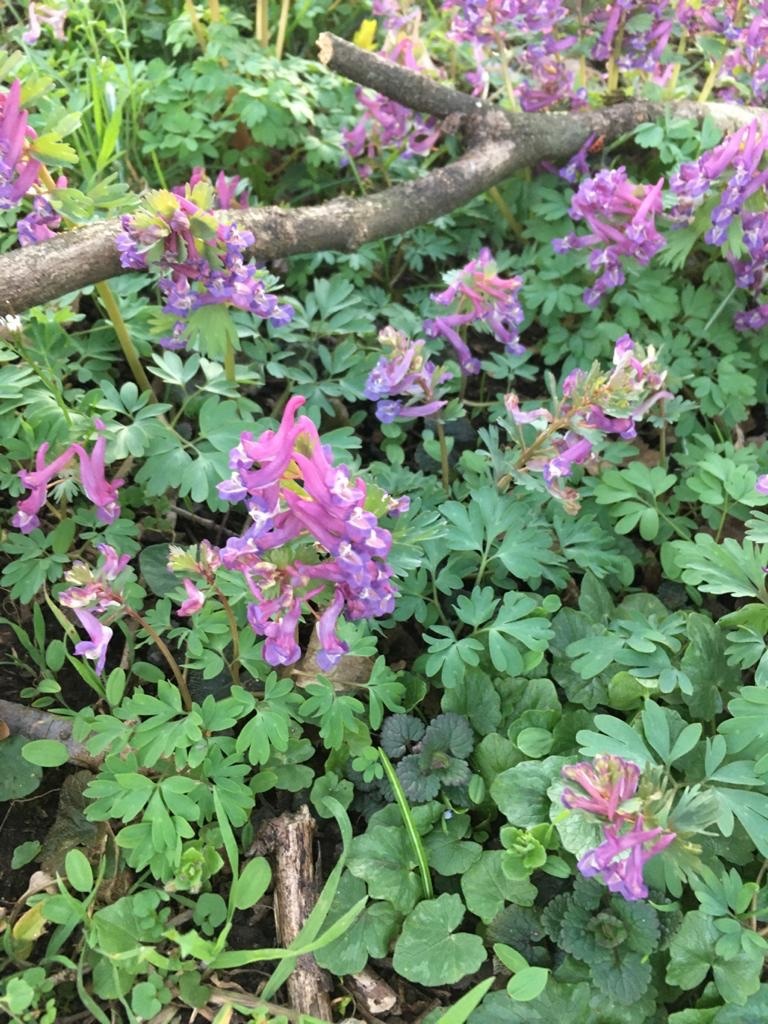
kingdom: Plantae
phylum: Tracheophyta
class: Magnoliopsida
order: Ranunculales
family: Papaveraceae
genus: Corydalis
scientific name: Corydalis solida
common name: Bird-in-a-bush
